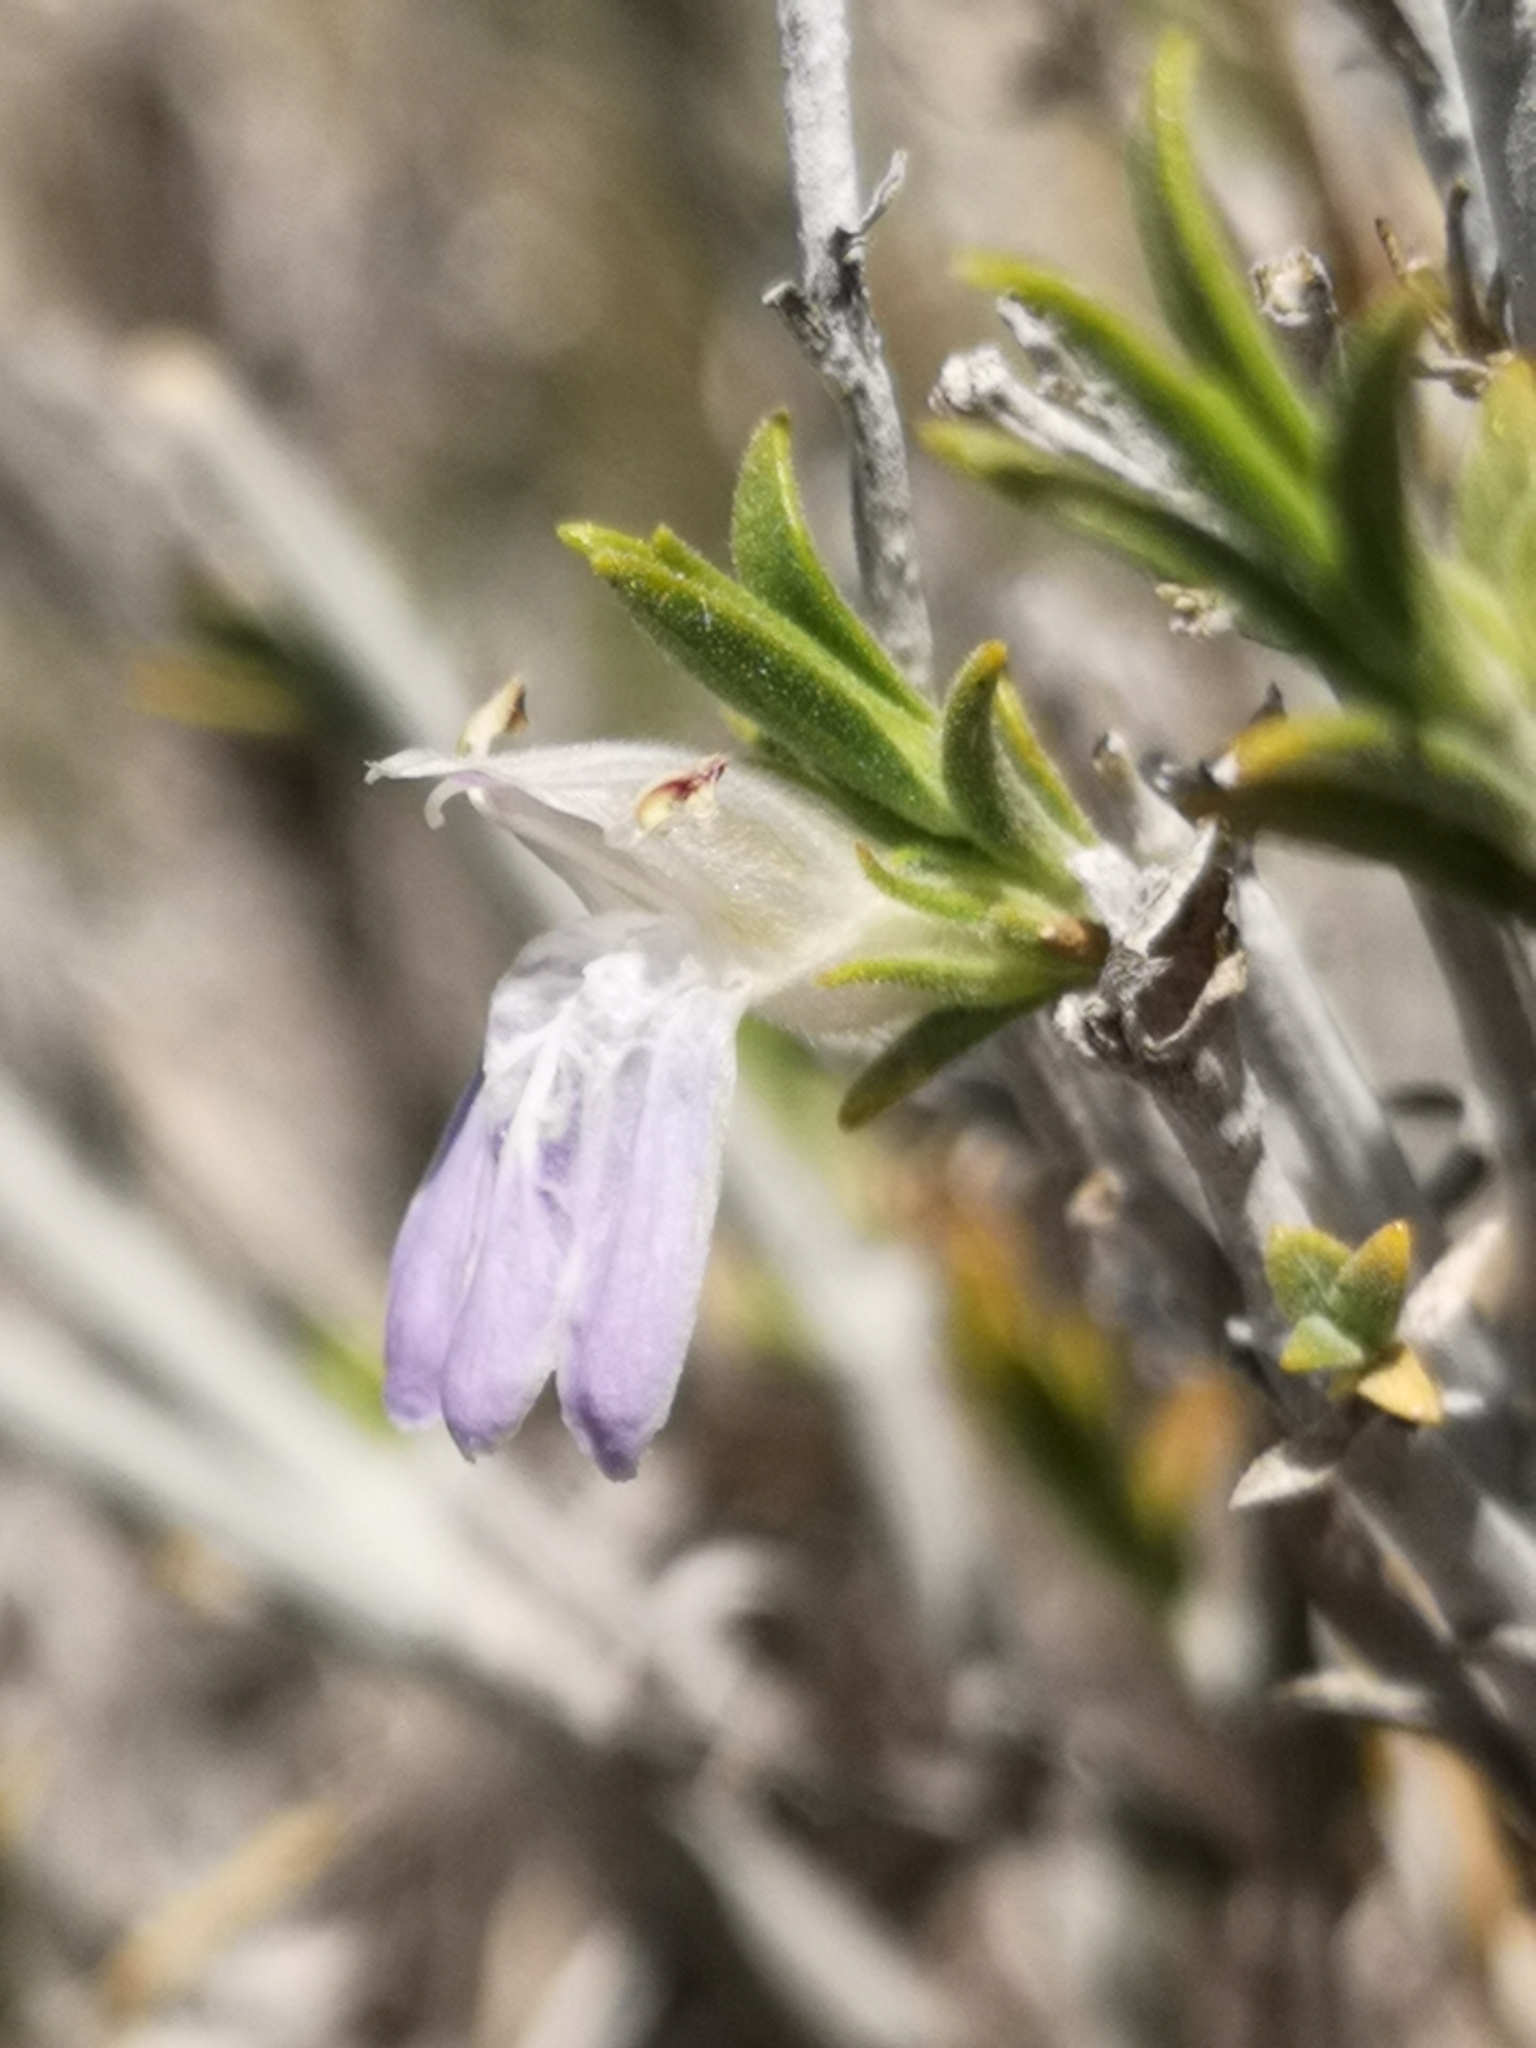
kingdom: Plantae
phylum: Tracheophyta
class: Magnoliopsida
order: Lamiales
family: Acanthaceae
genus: Pogonospermum
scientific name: Pogonospermum
